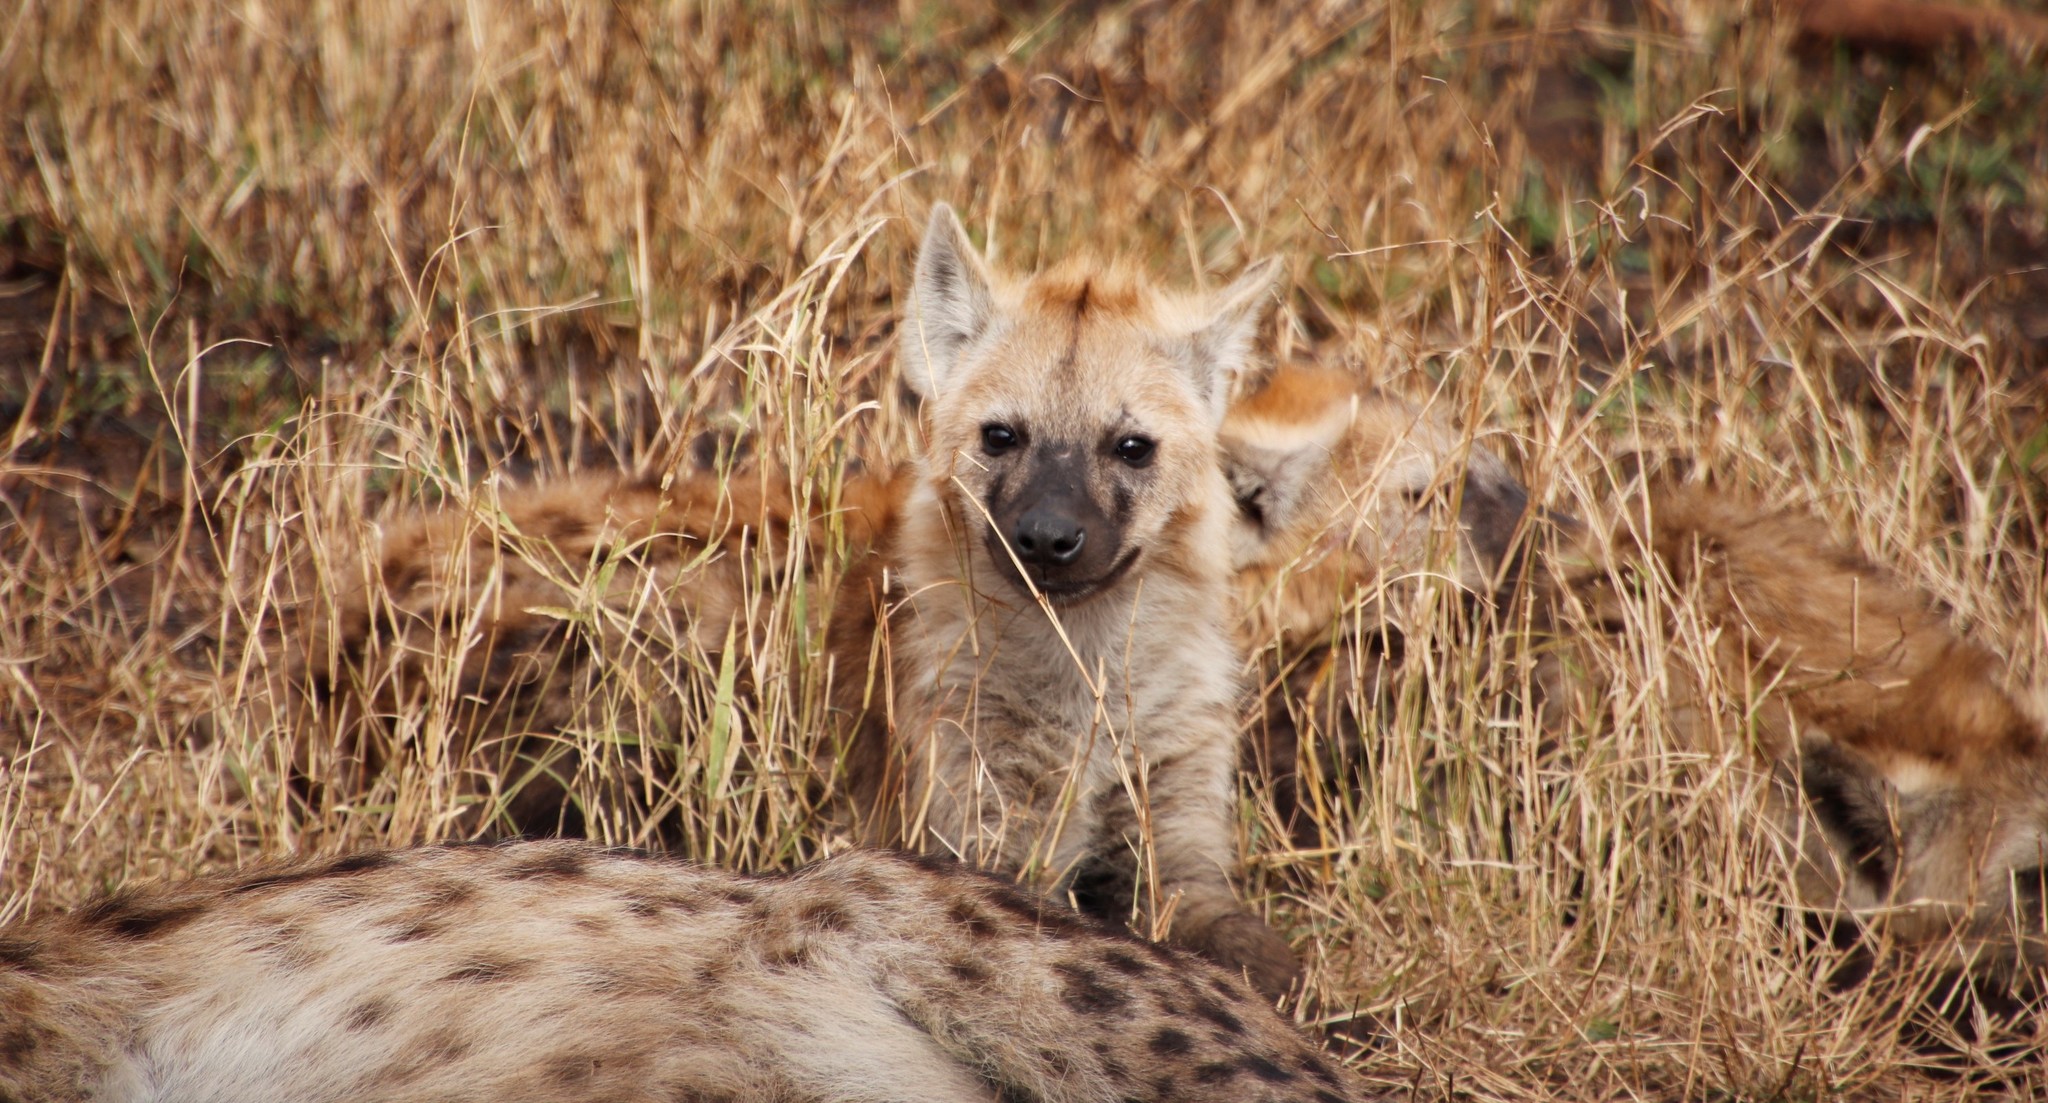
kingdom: Animalia
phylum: Chordata
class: Mammalia
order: Carnivora
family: Hyaenidae
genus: Crocuta
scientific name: Crocuta crocuta
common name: Spotted hyaena
